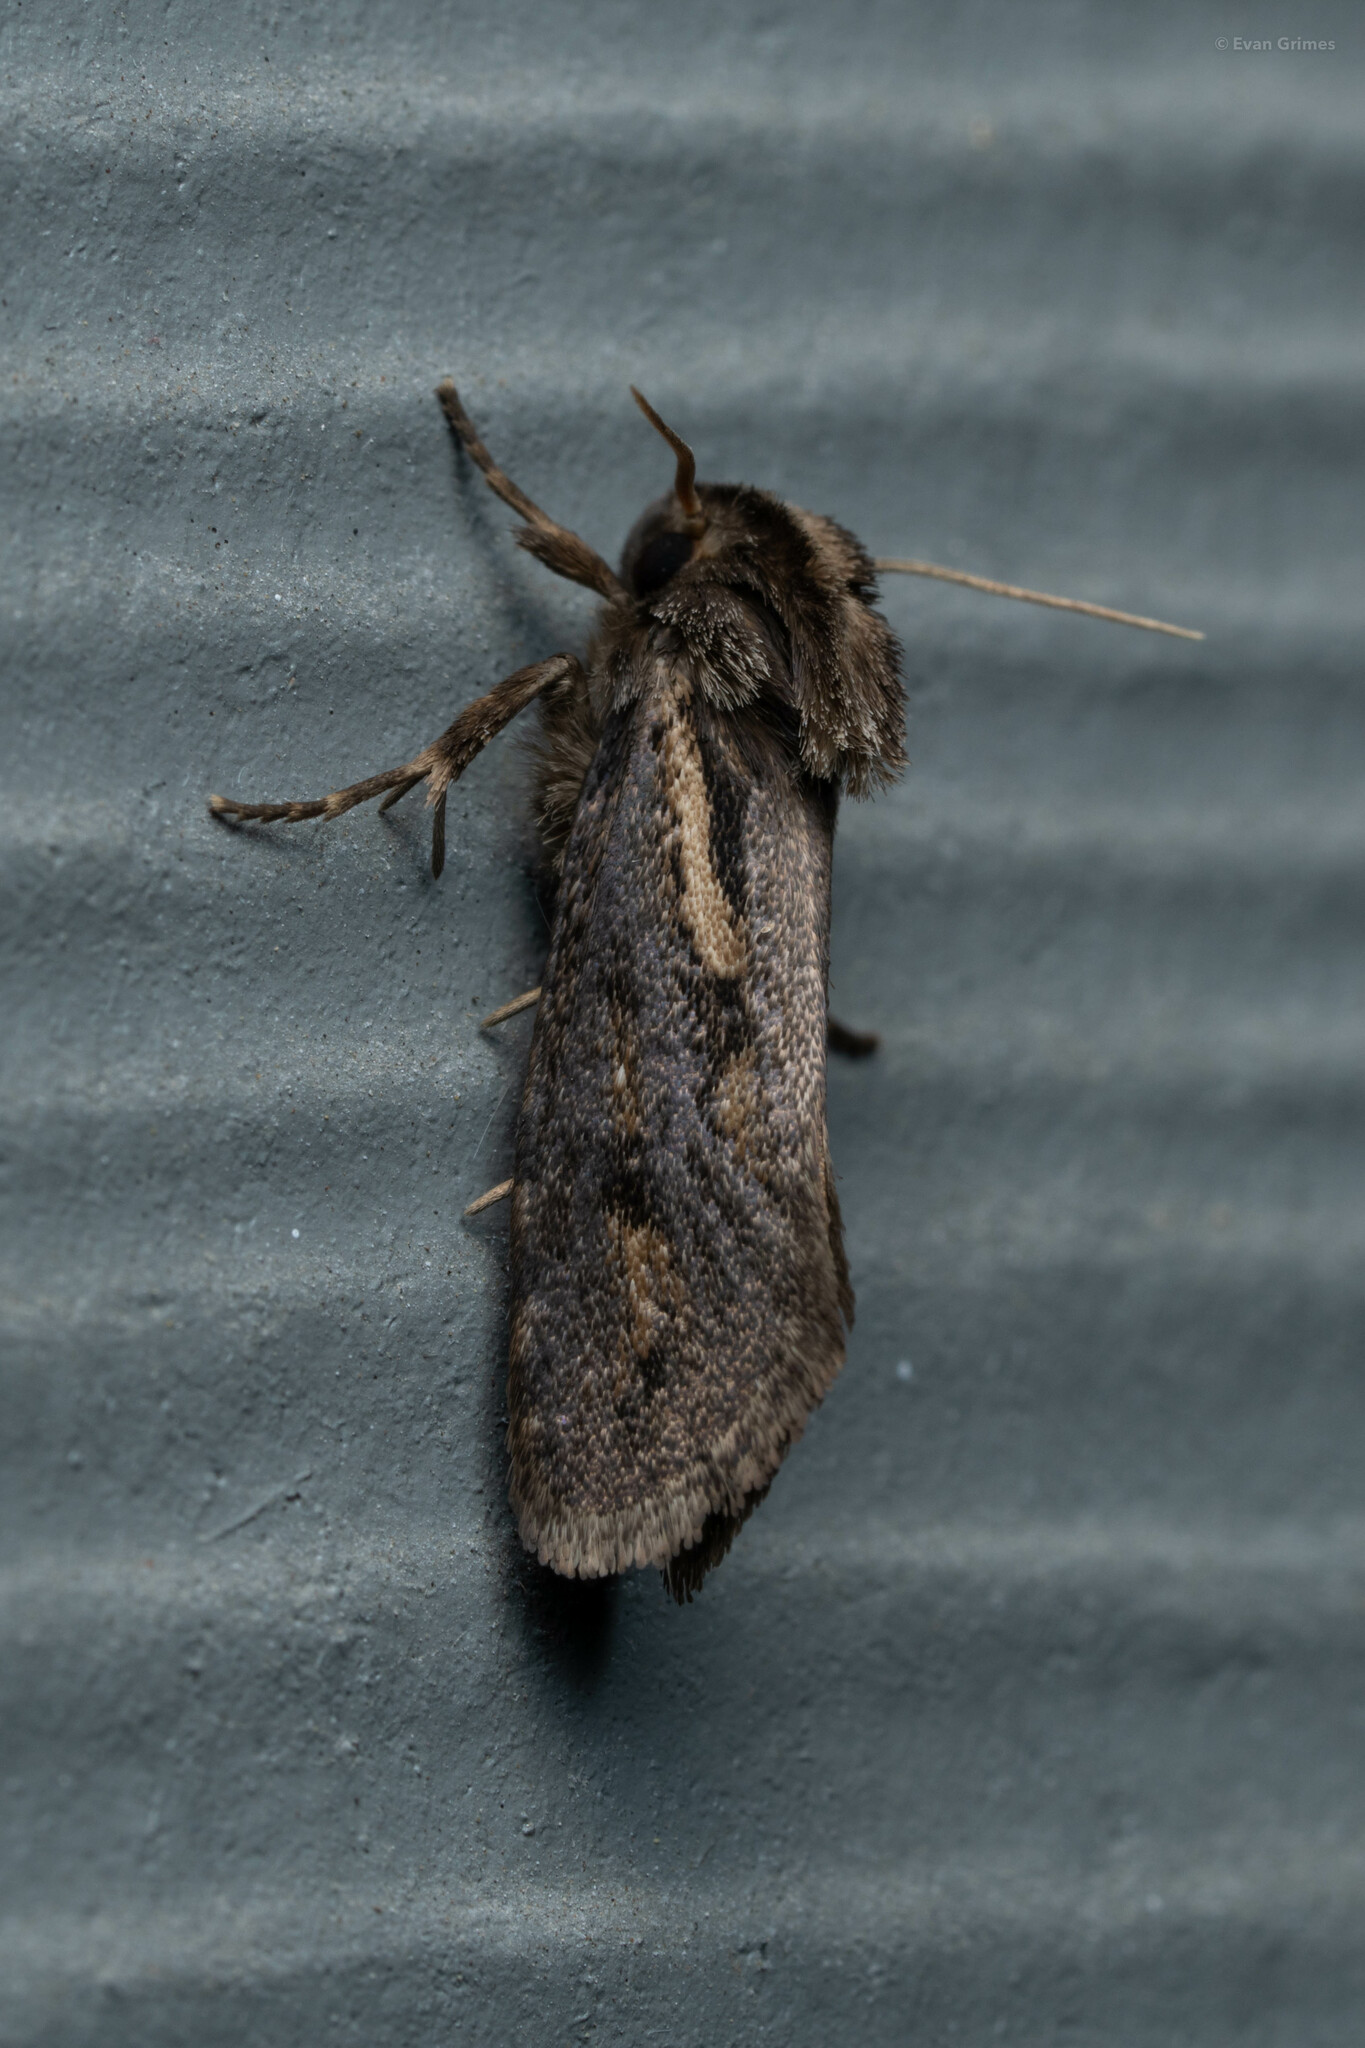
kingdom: Animalia
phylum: Arthropoda
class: Insecta
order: Lepidoptera
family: Tineidae
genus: Acrolophus
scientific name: Acrolophus popeanella
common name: Clemens' grass tubeworm moth
